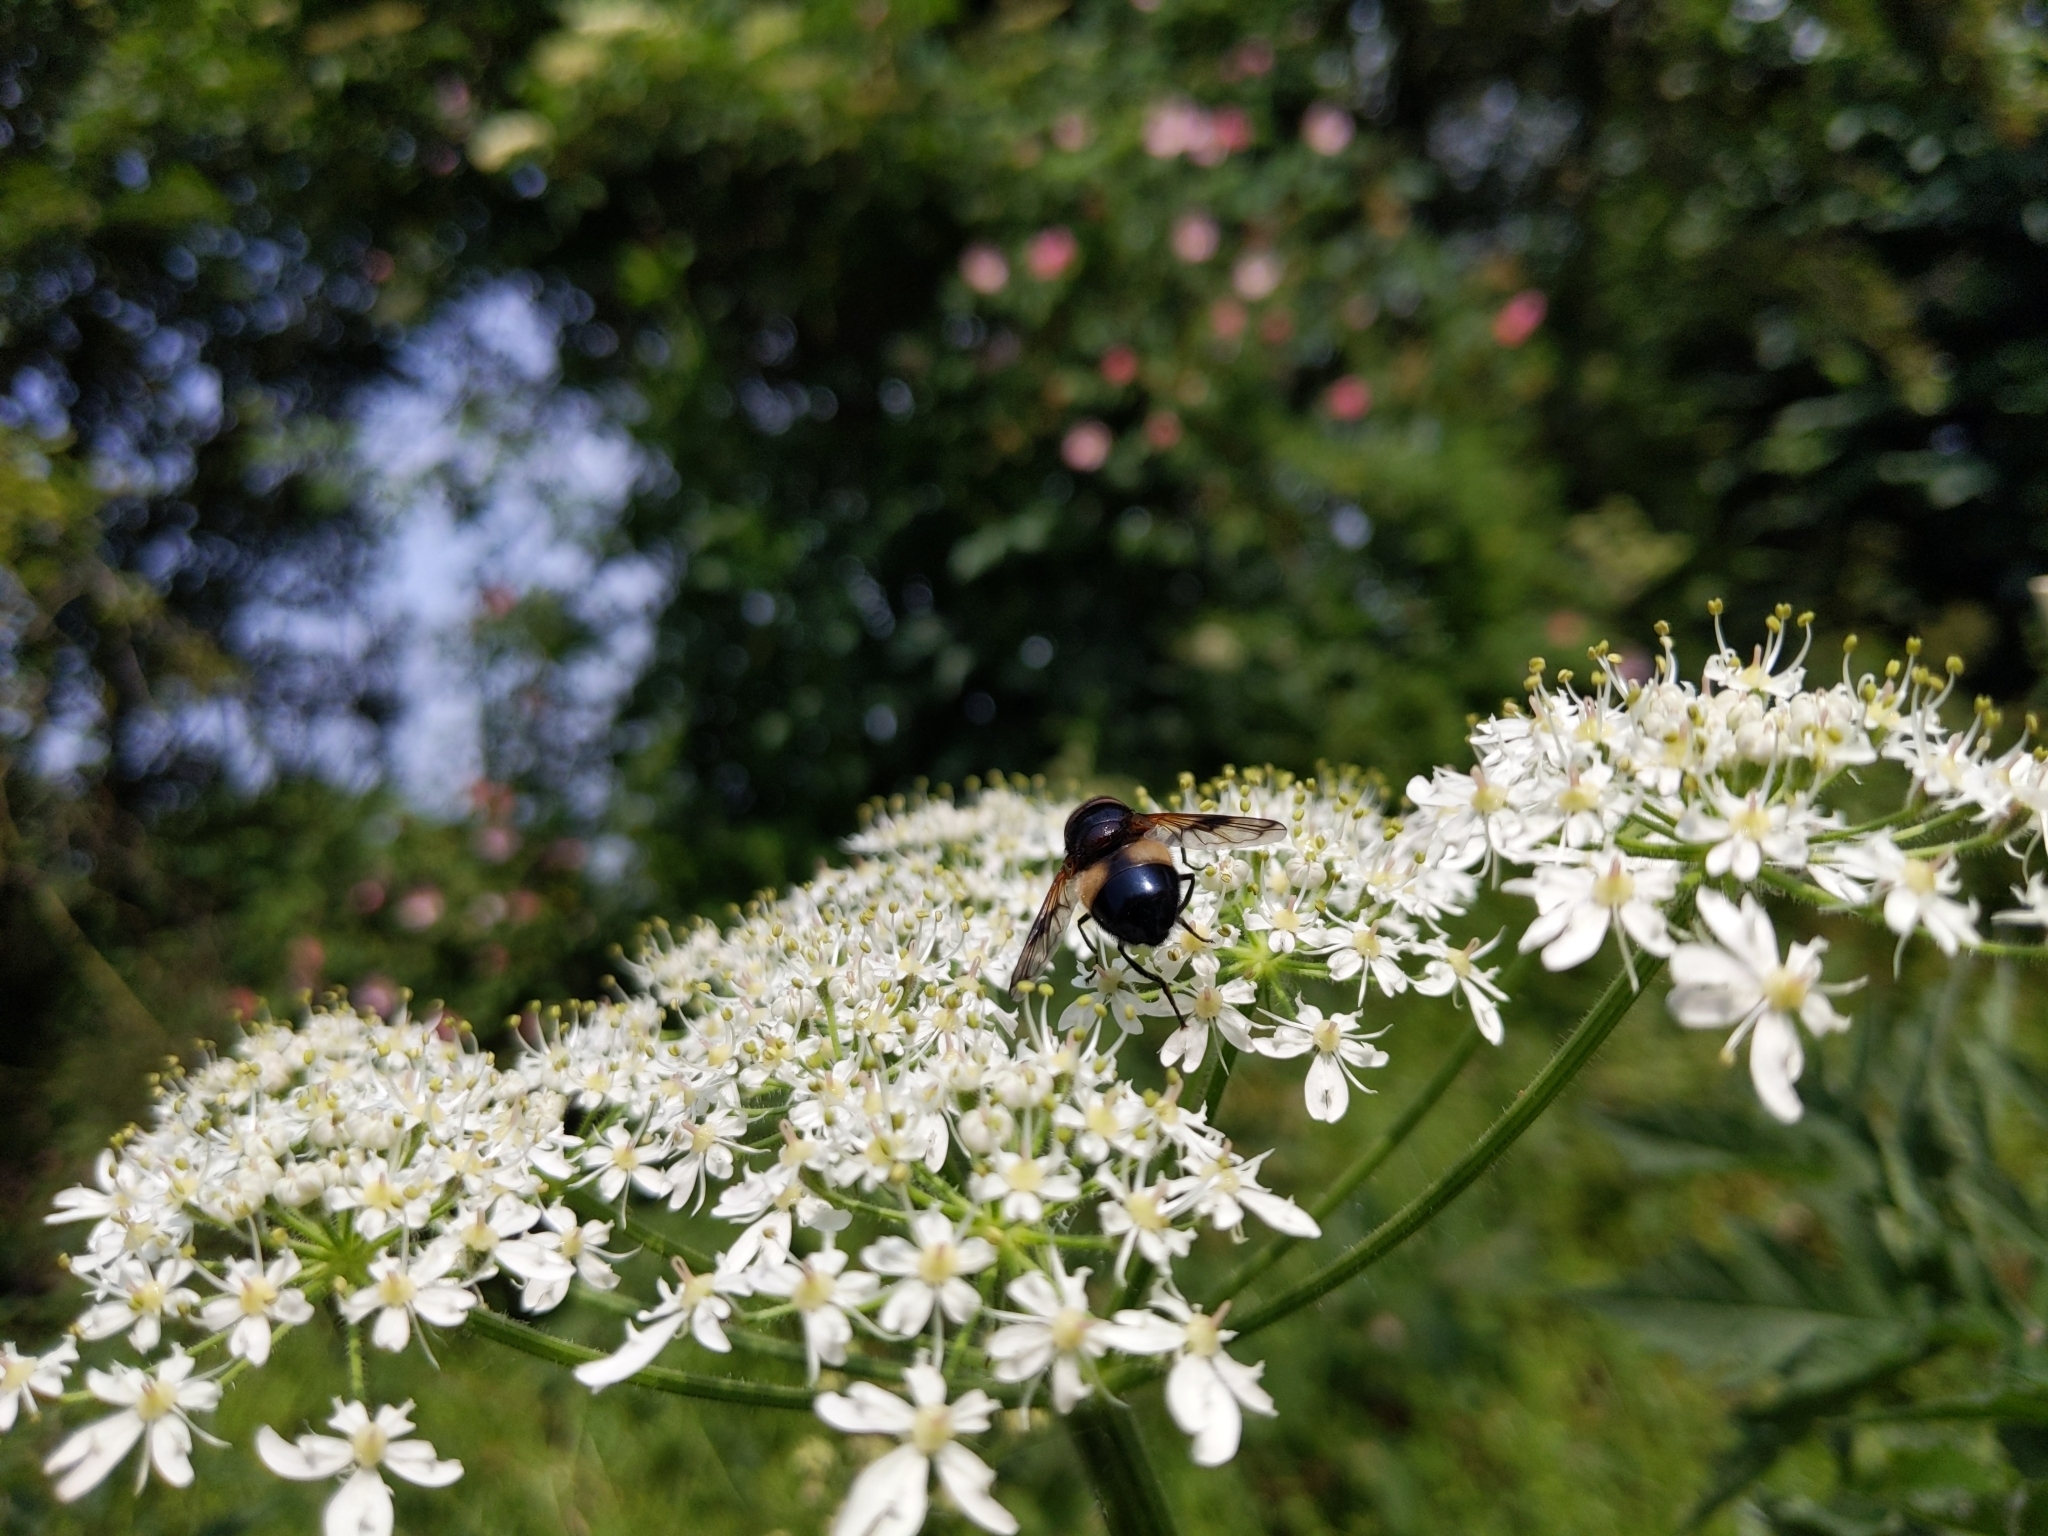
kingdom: Animalia
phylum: Arthropoda
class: Insecta
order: Diptera
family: Syrphidae
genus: Volucella
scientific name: Volucella pellucens
